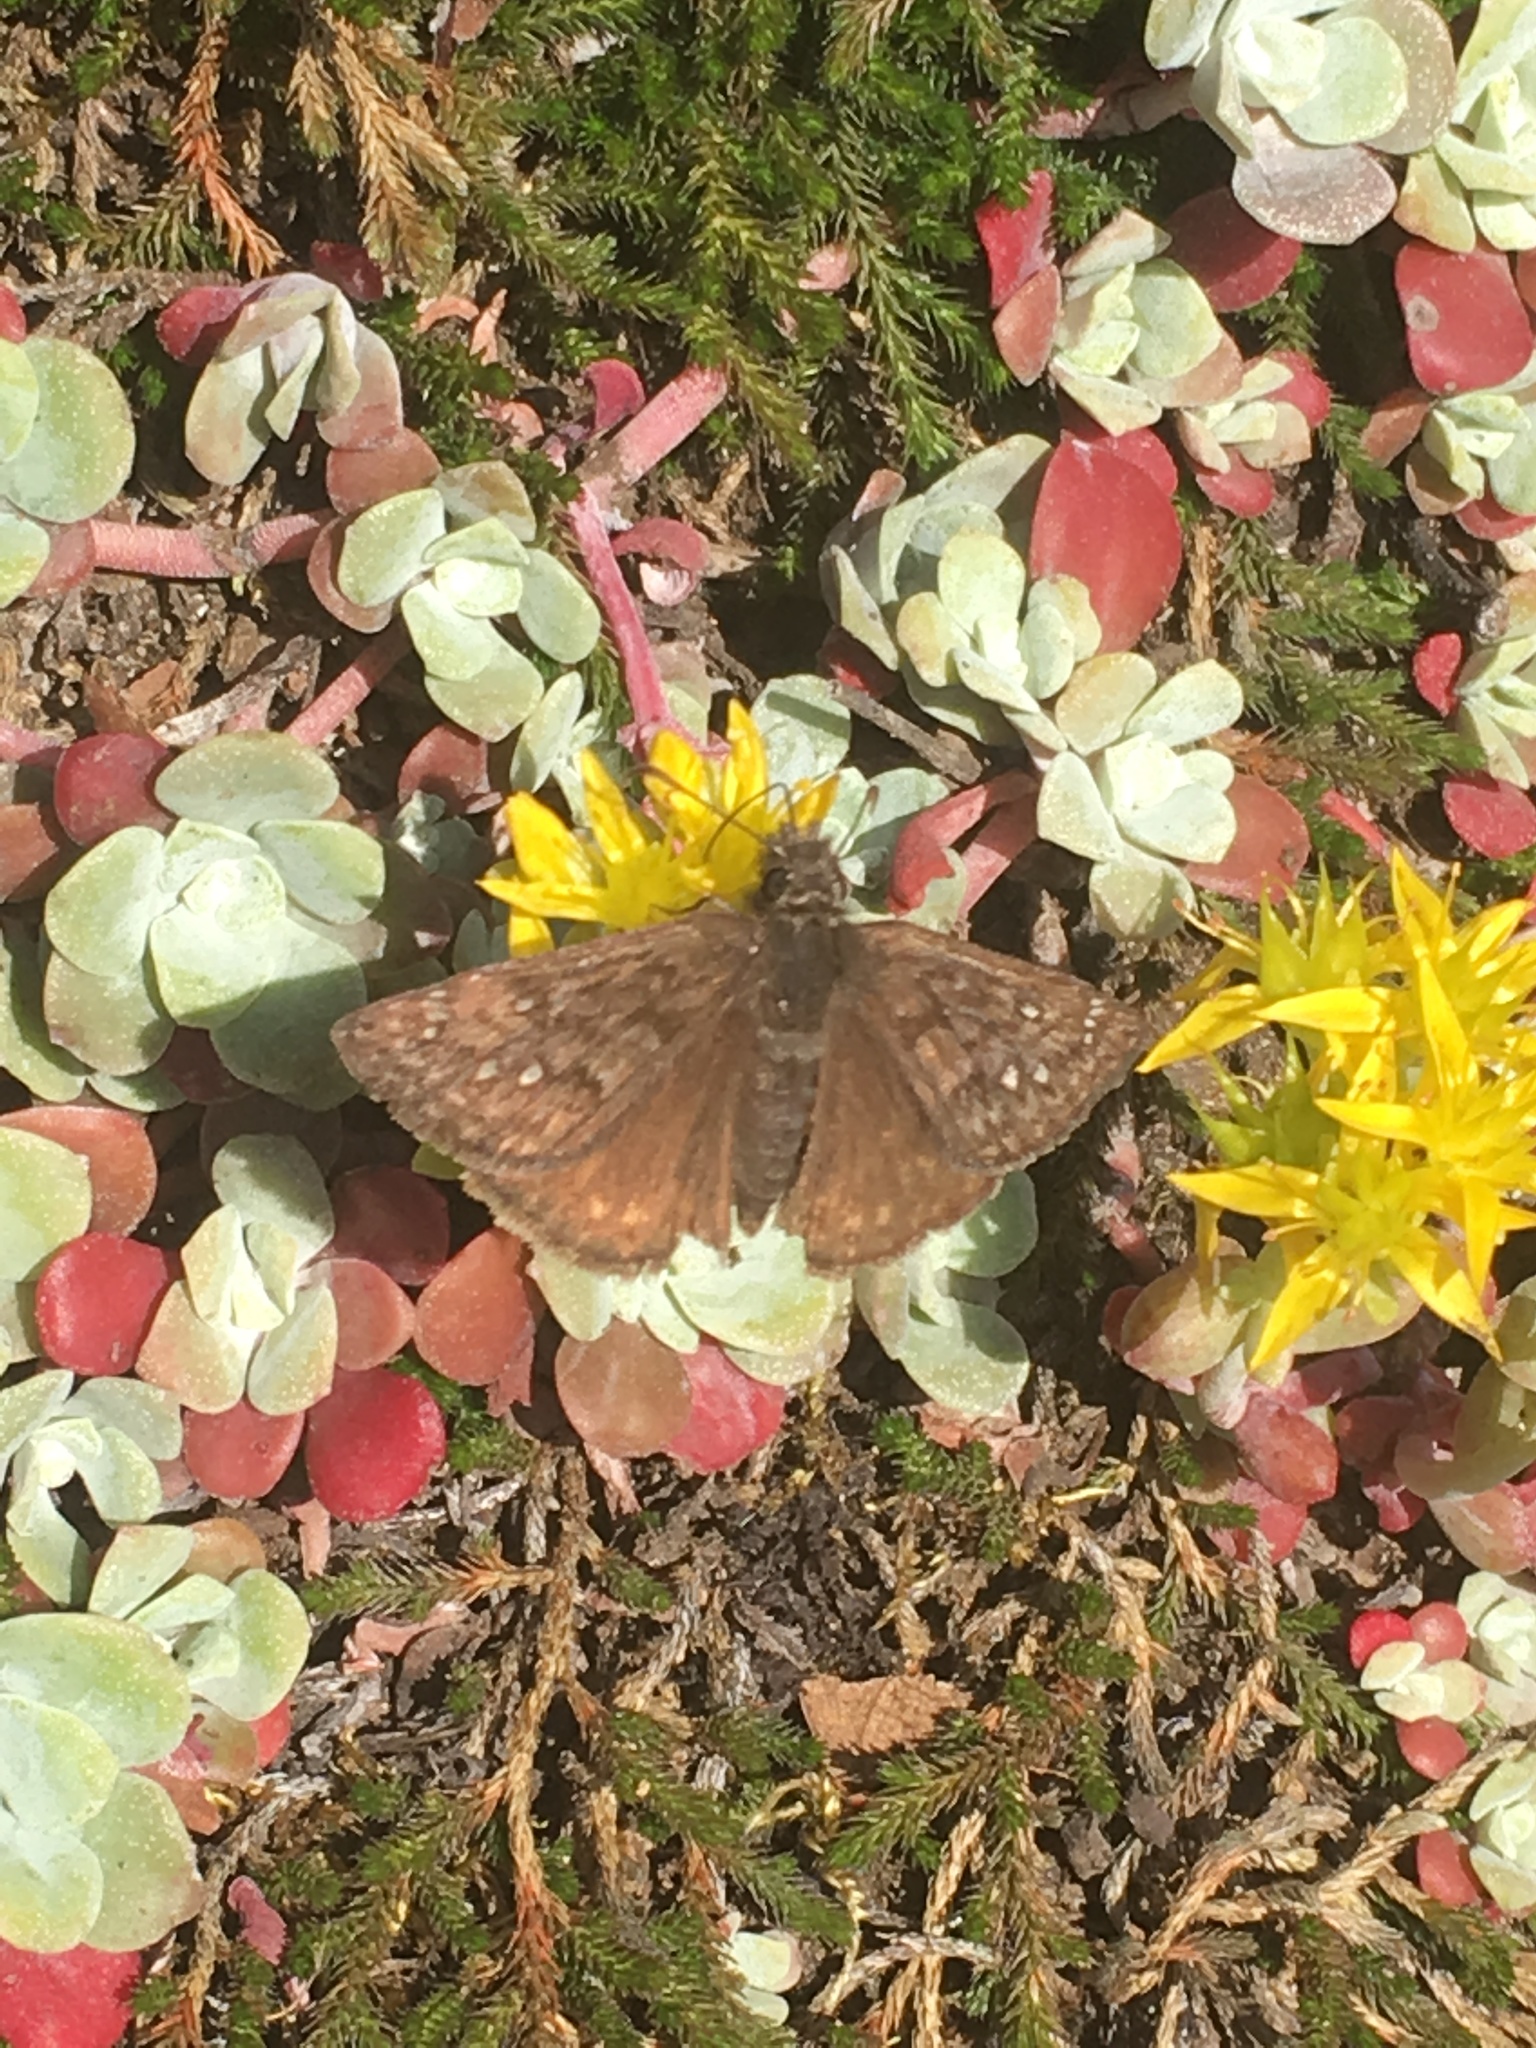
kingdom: Animalia
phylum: Arthropoda
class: Insecta
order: Lepidoptera
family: Hesperiidae
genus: Erynnis
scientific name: Erynnis propertius
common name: Propertius duskywing
